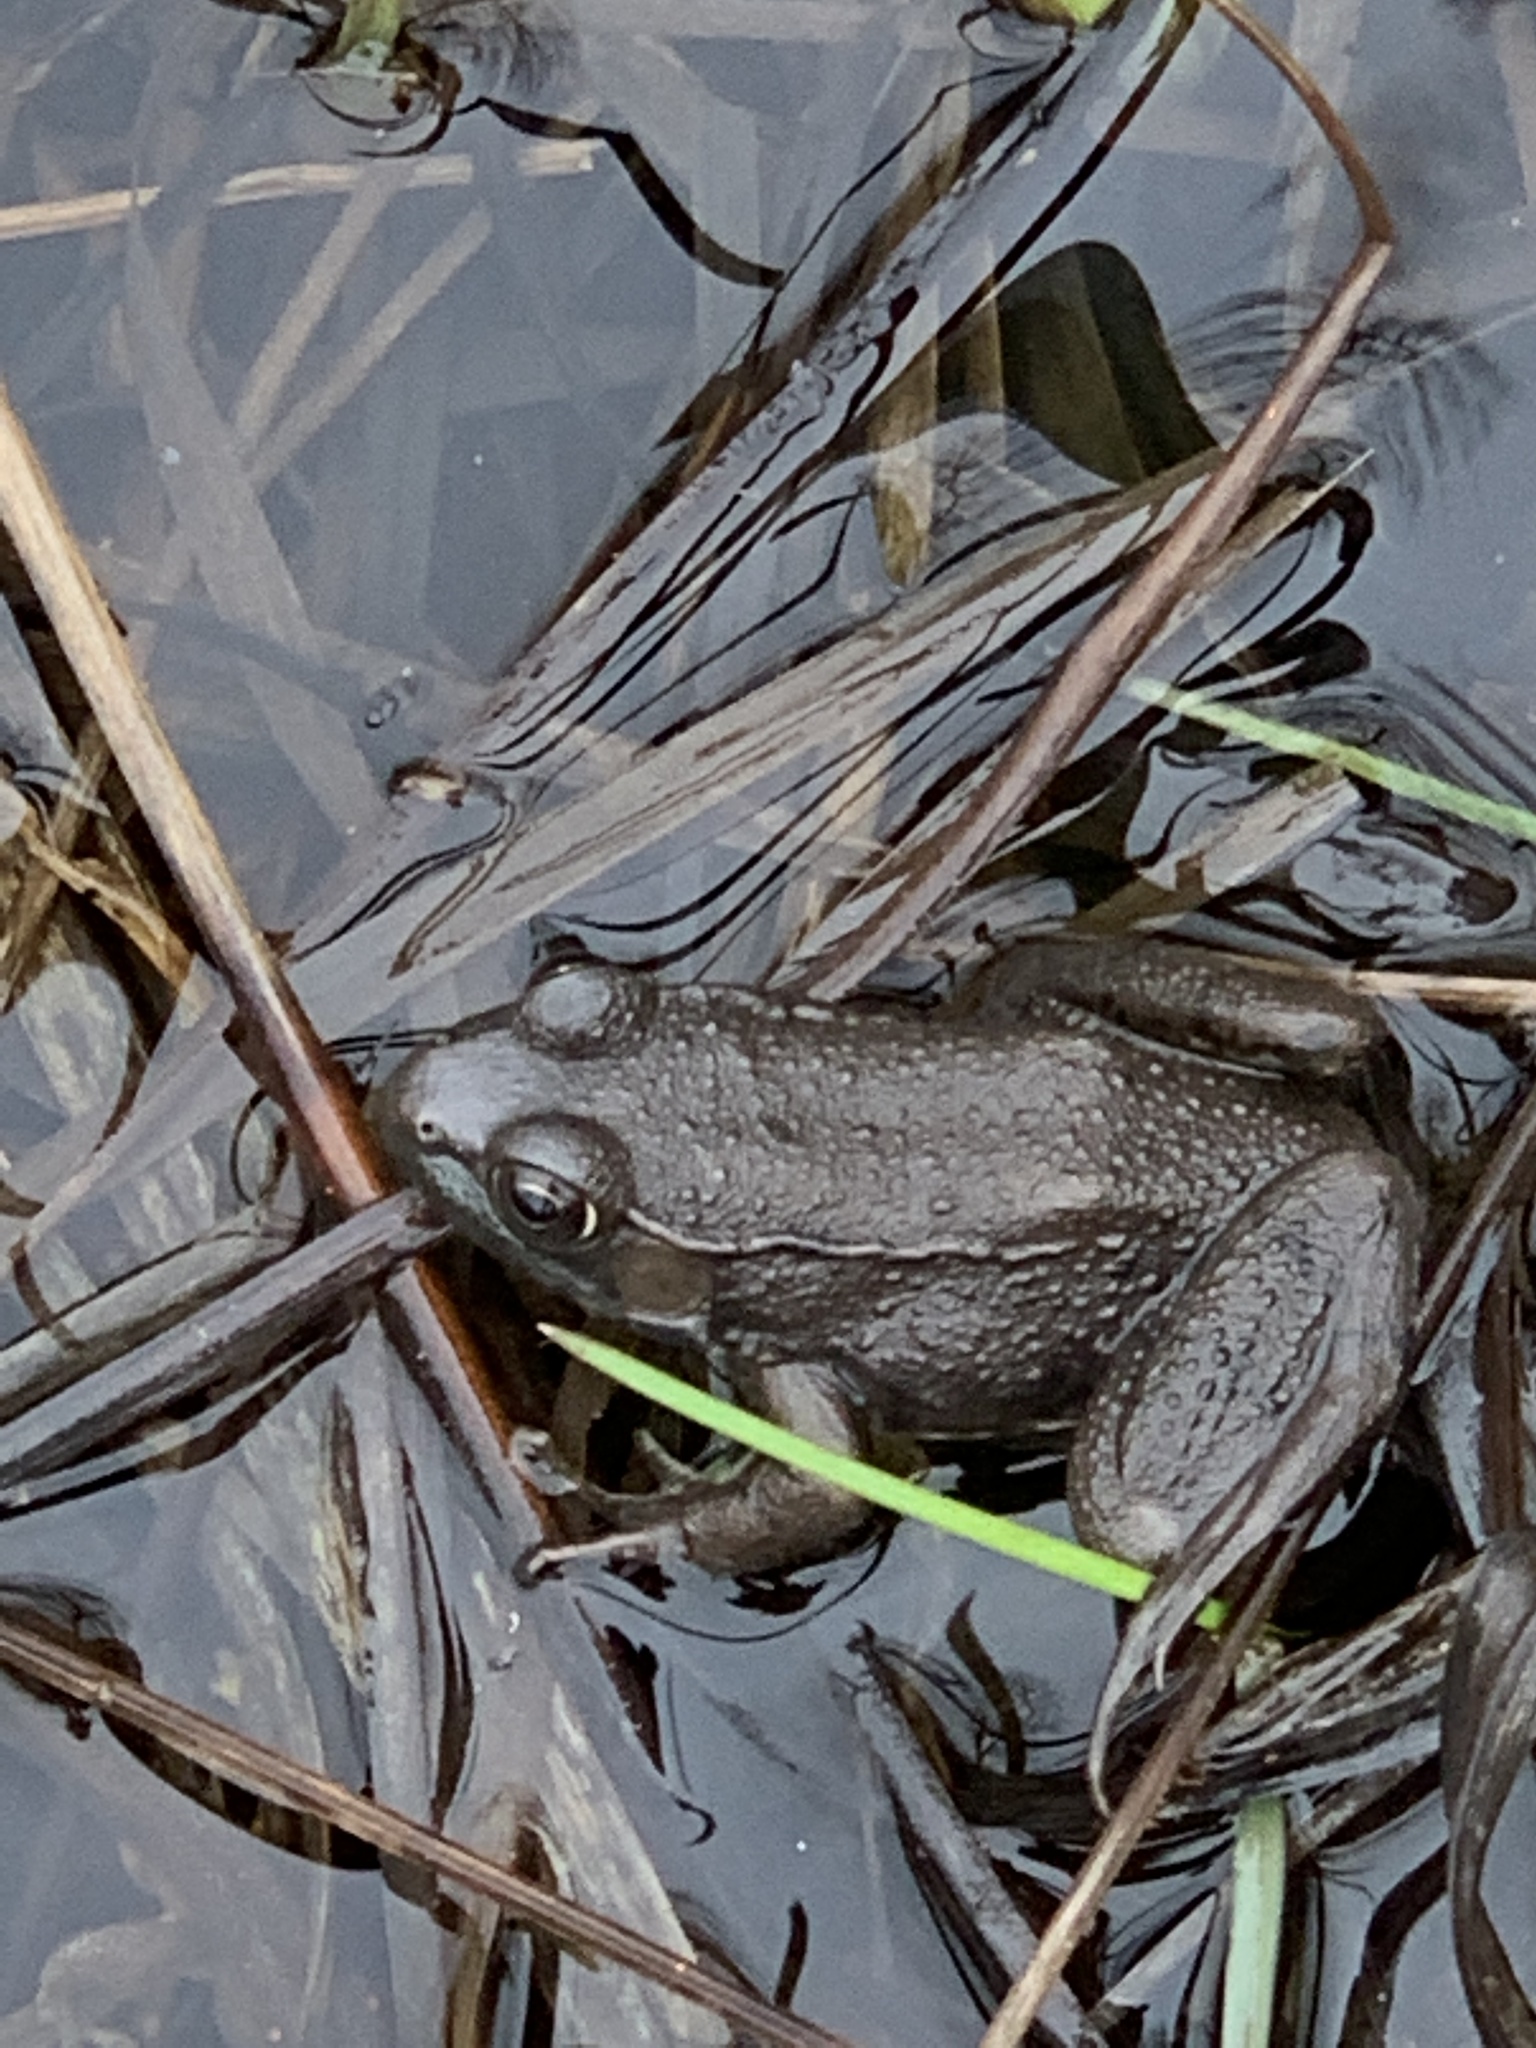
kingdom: Animalia
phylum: Chordata
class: Amphibia
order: Anura
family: Ranidae
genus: Lithobates
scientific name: Lithobates clamitans
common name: Green frog
